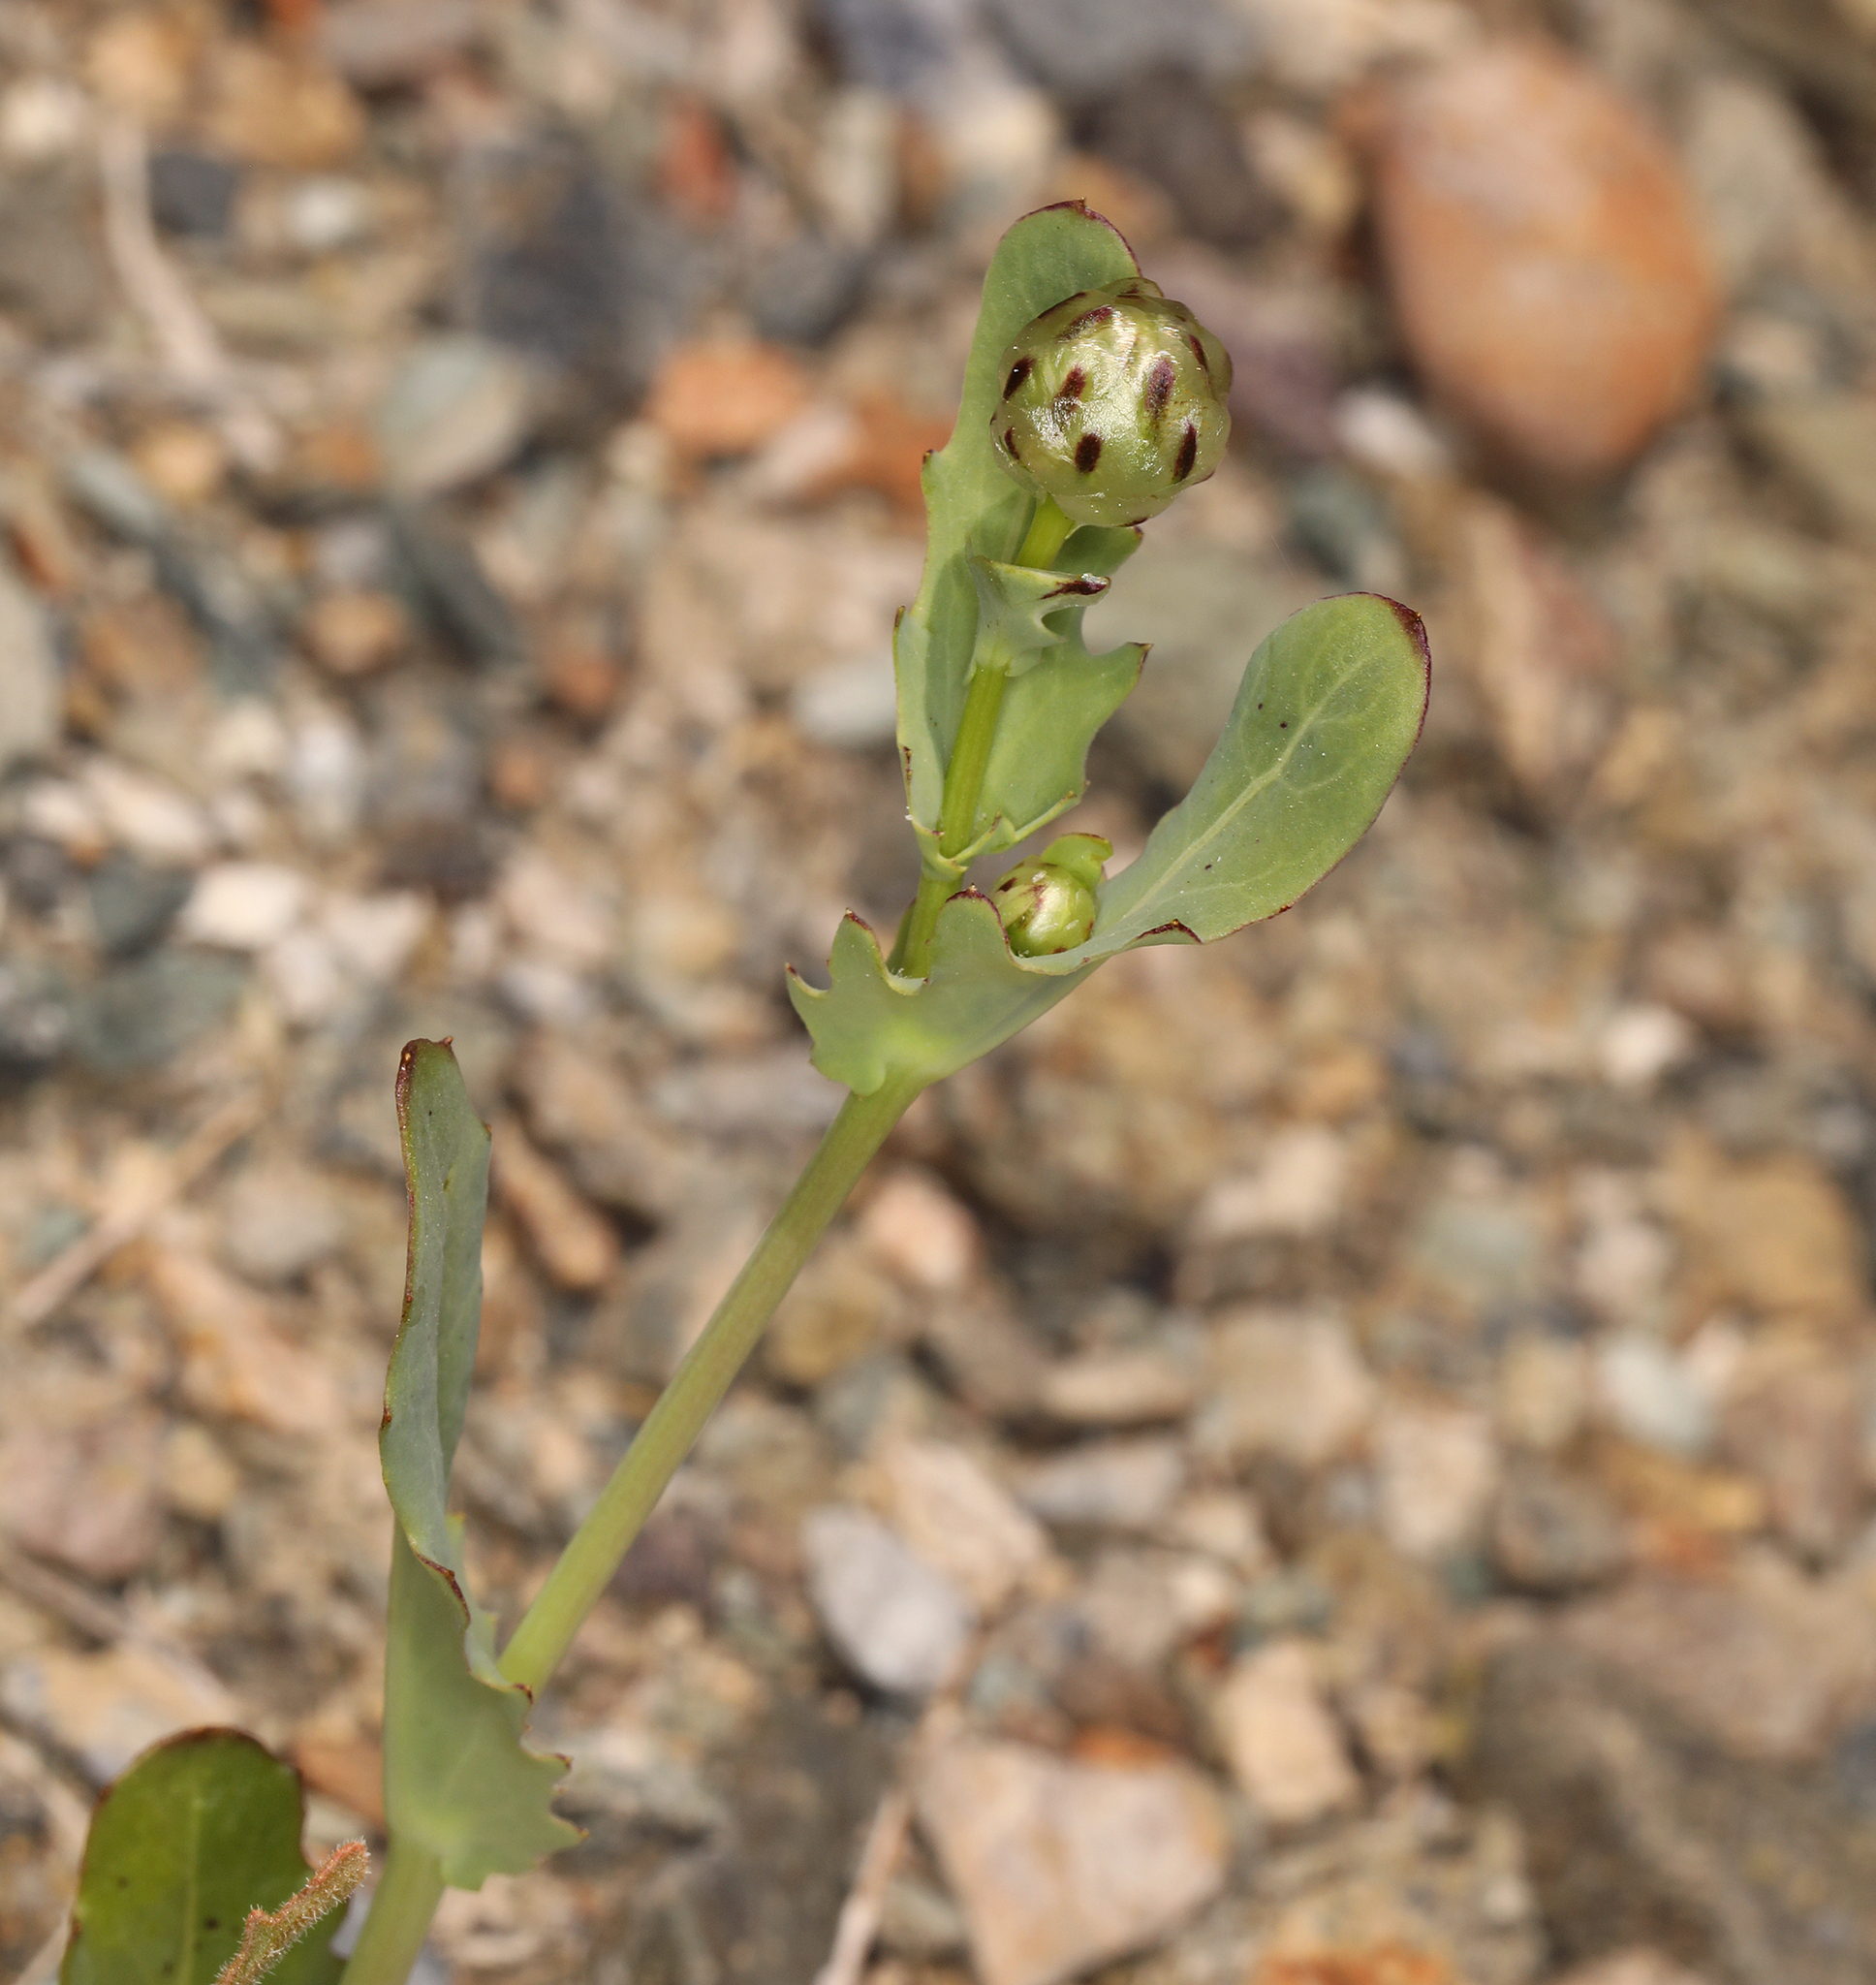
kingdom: Plantae
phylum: Tracheophyta
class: Magnoliopsida
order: Asterales
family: Asteraceae
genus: Malacothrix
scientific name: Malacothrix coulteri
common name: Snake's-head
